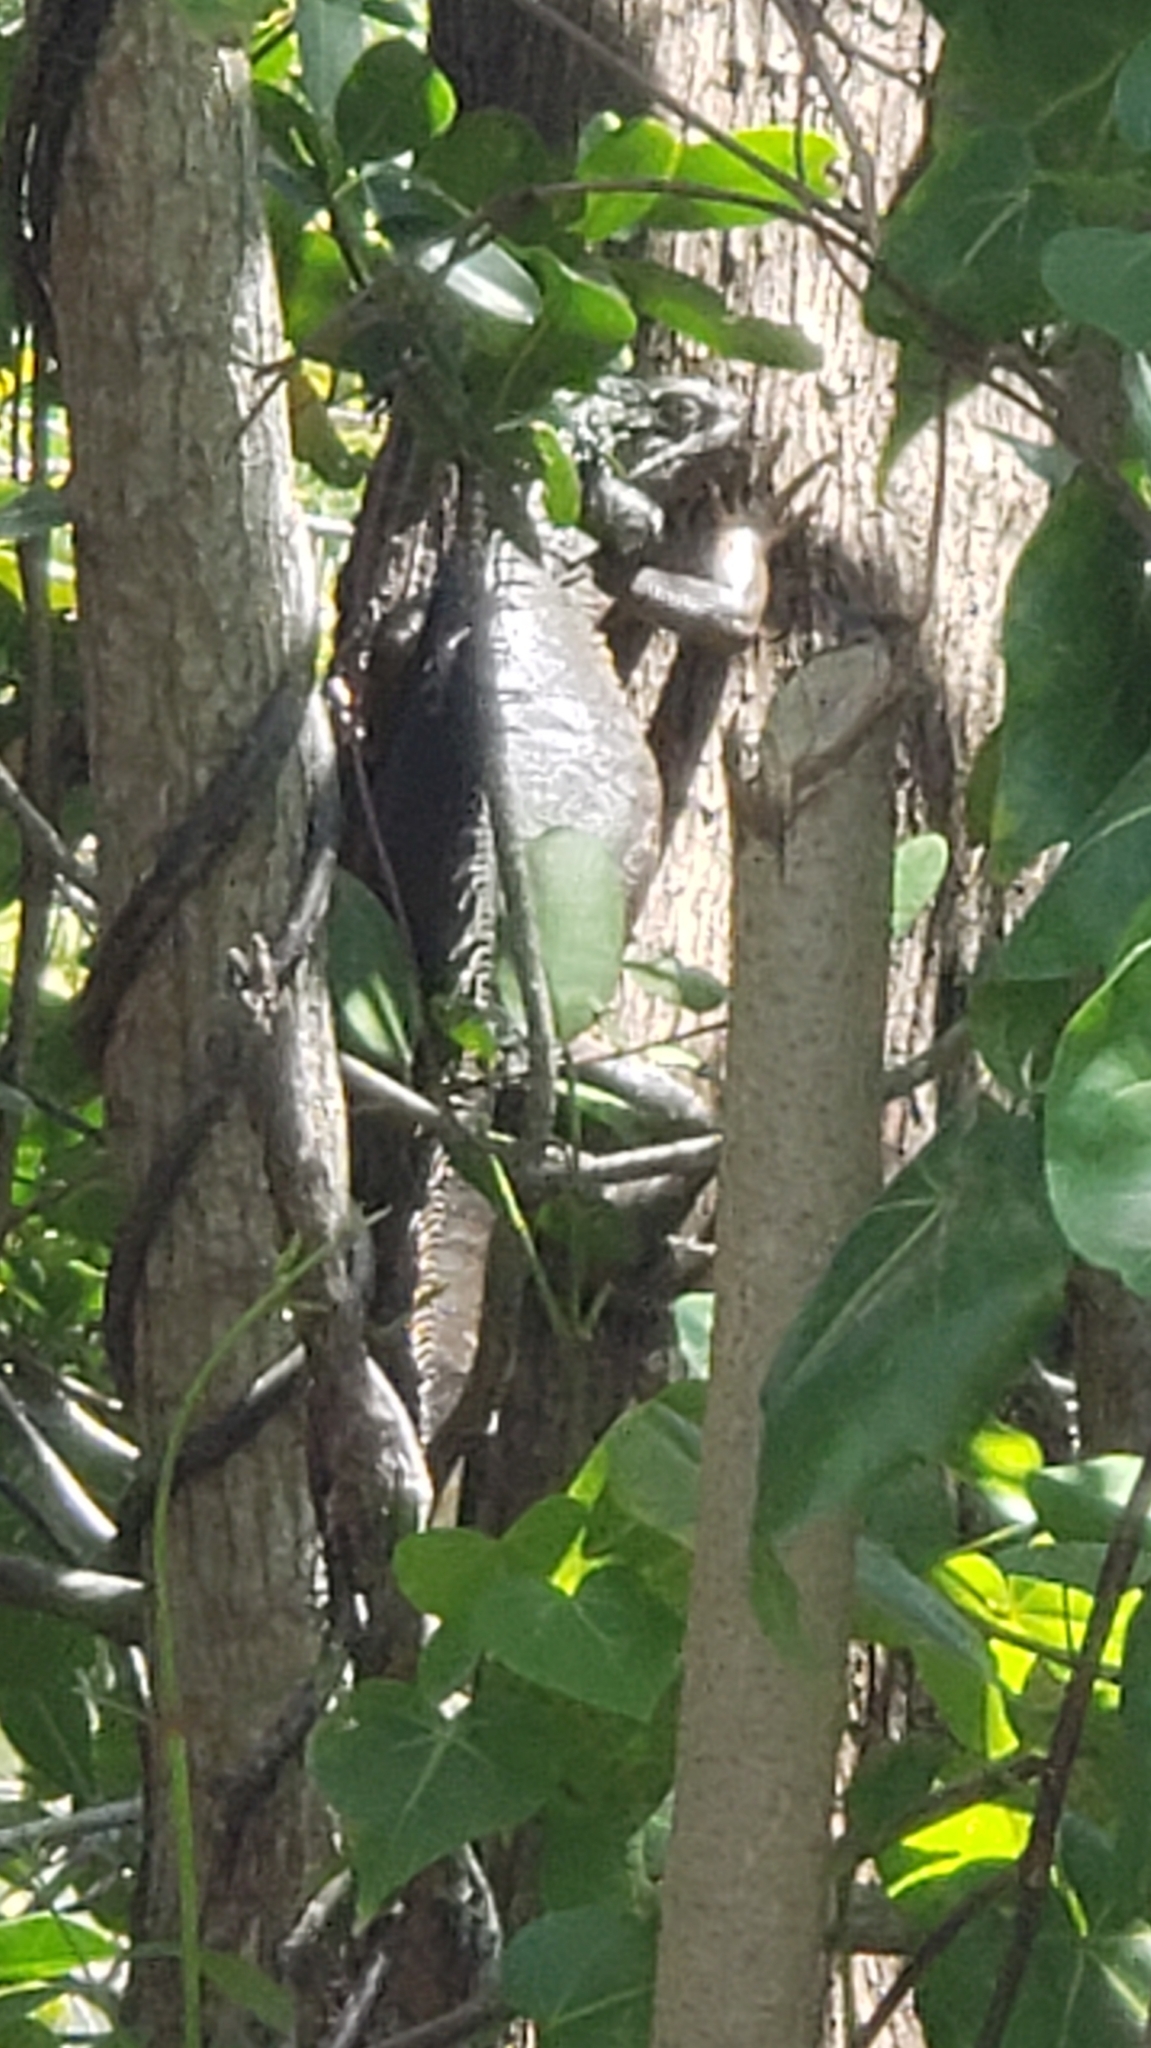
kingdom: Animalia
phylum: Chordata
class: Squamata
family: Iguanidae
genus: Iguana
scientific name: Iguana iguana
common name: Green iguana
